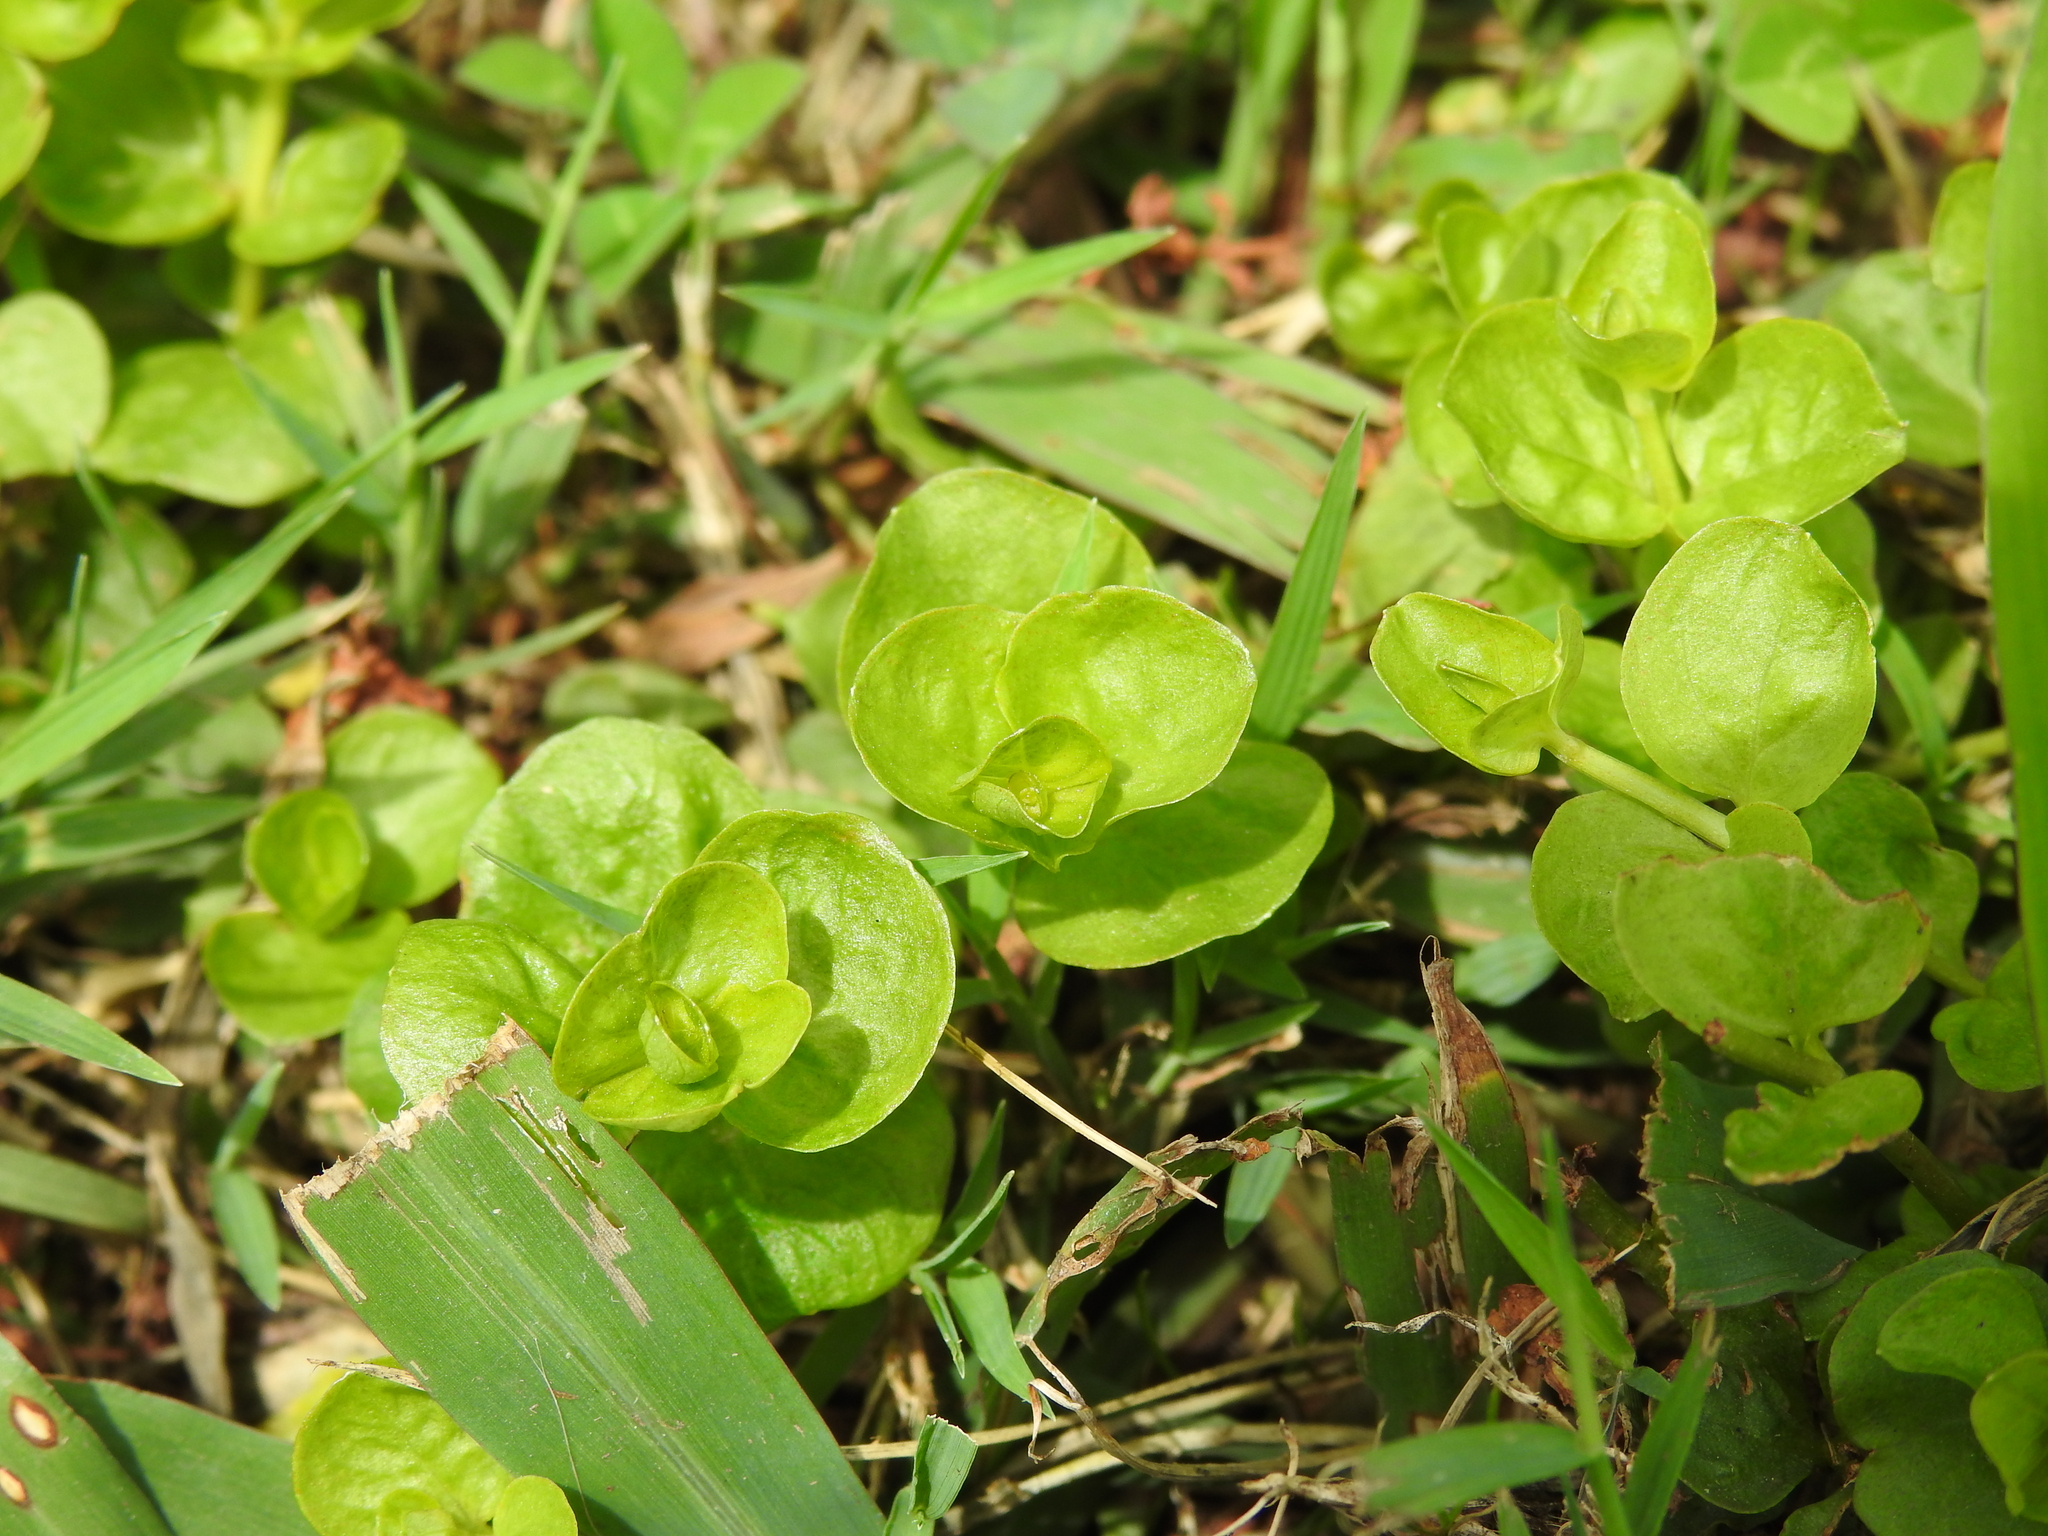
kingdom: Plantae
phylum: Tracheophyta
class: Magnoliopsida
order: Ericales
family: Primulaceae
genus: Lysimachia
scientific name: Lysimachia nummularia
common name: Moneywort
